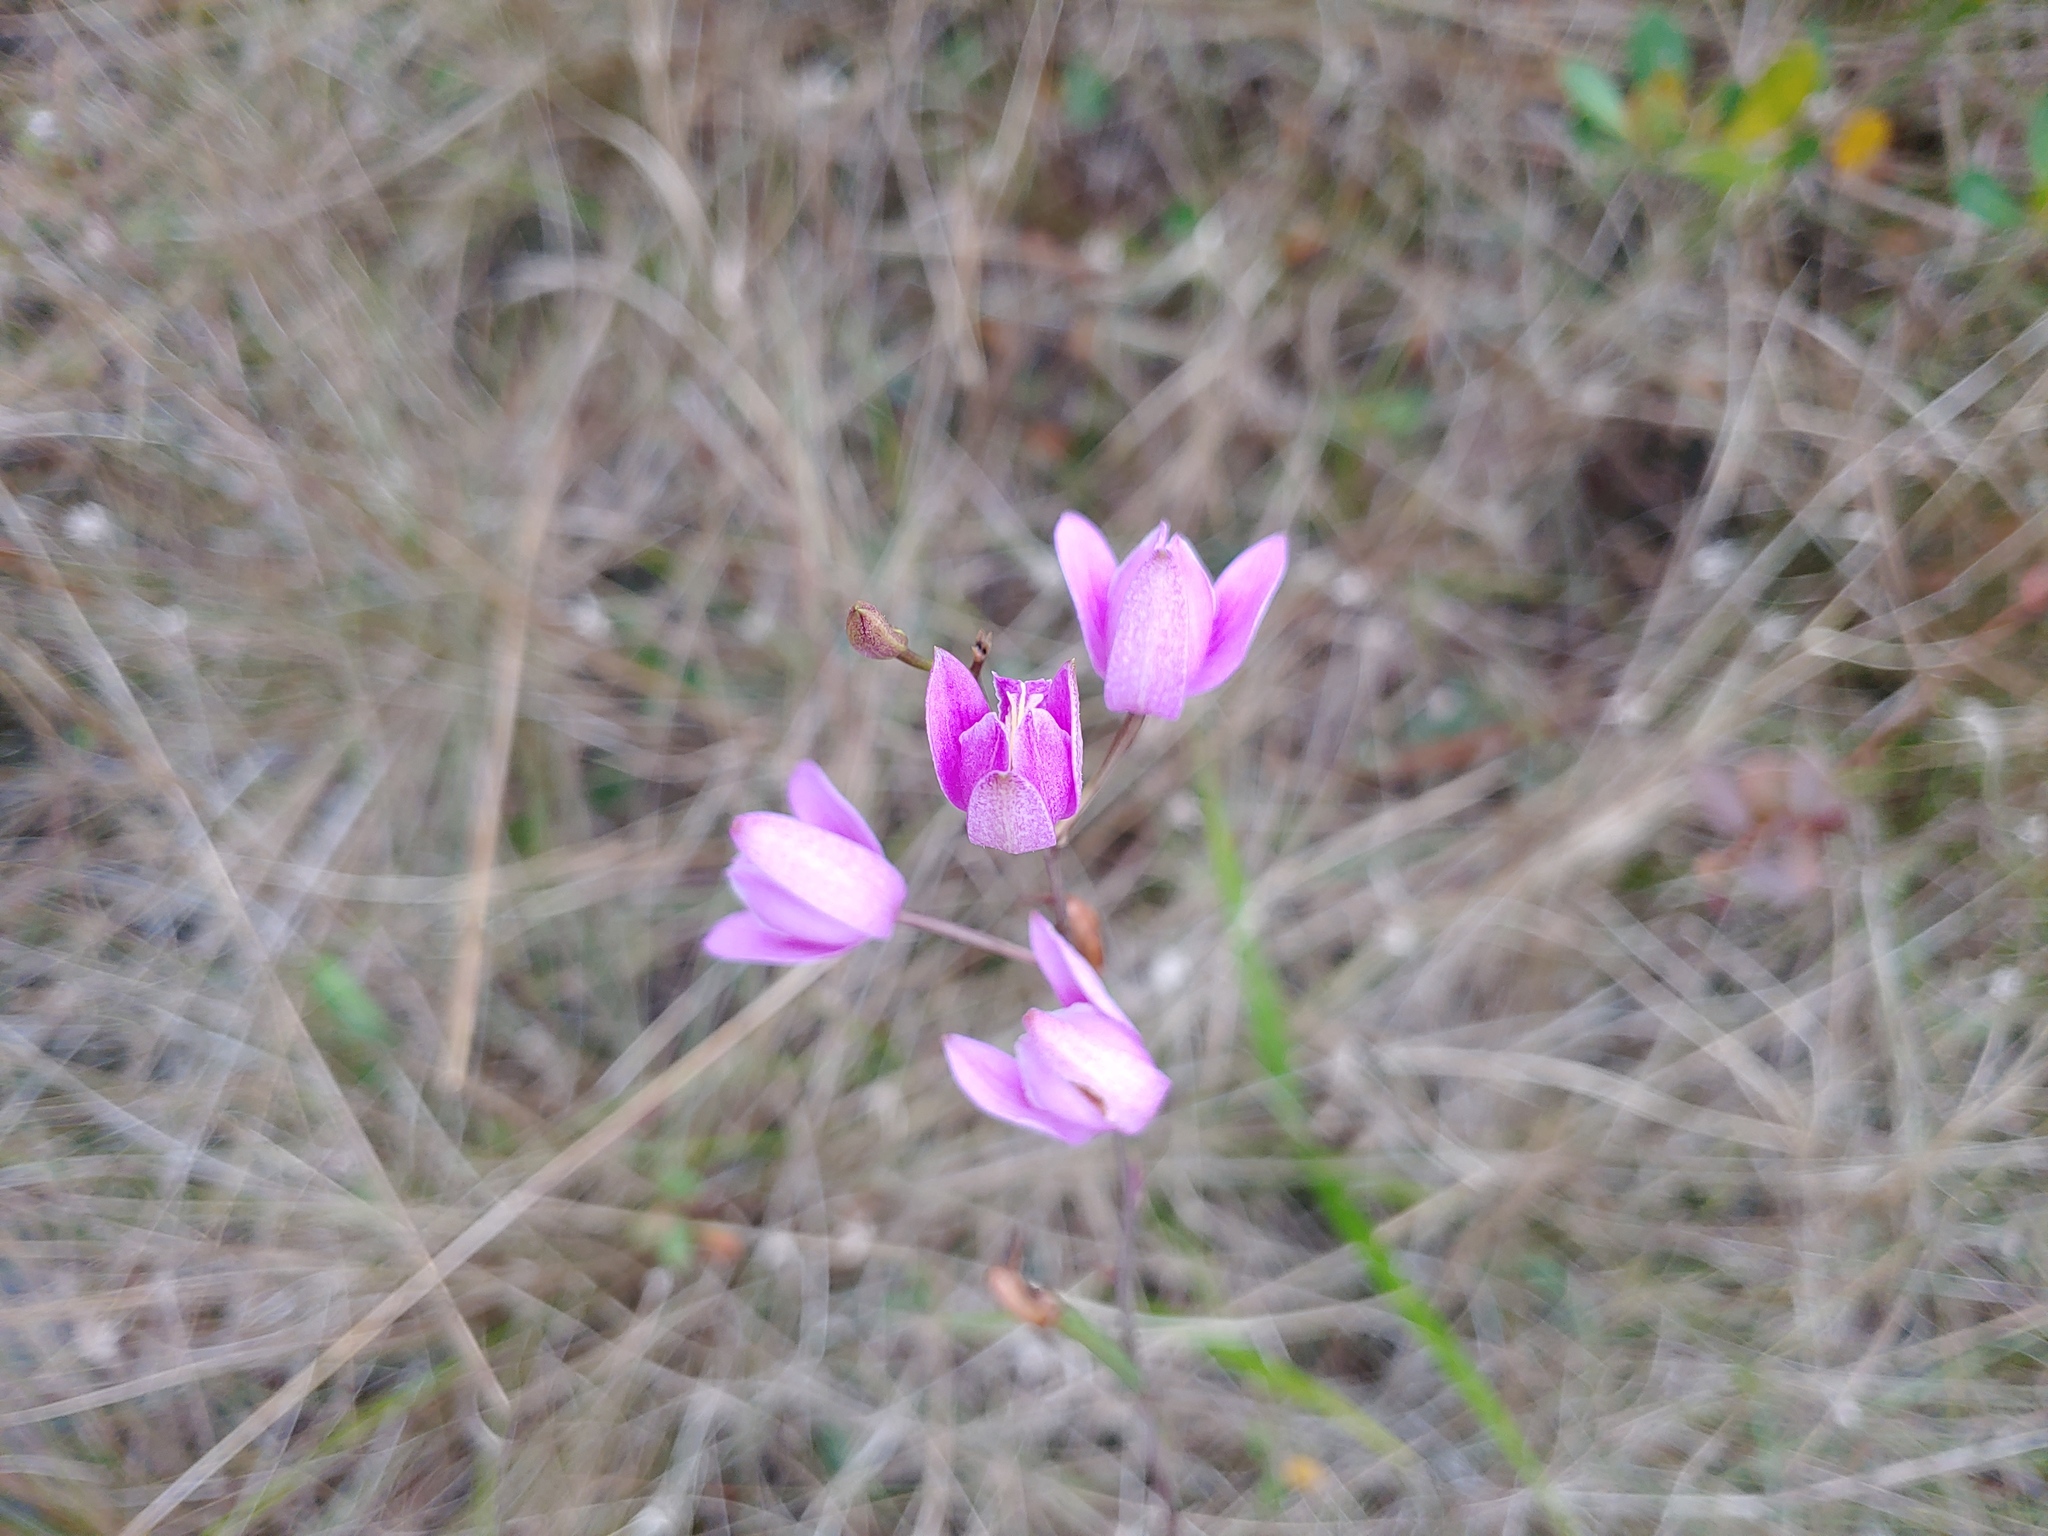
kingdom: Plantae
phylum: Tracheophyta
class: Liliopsida
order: Asparagales
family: Orchidaceae
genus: Bletia
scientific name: Bletia purpurea
